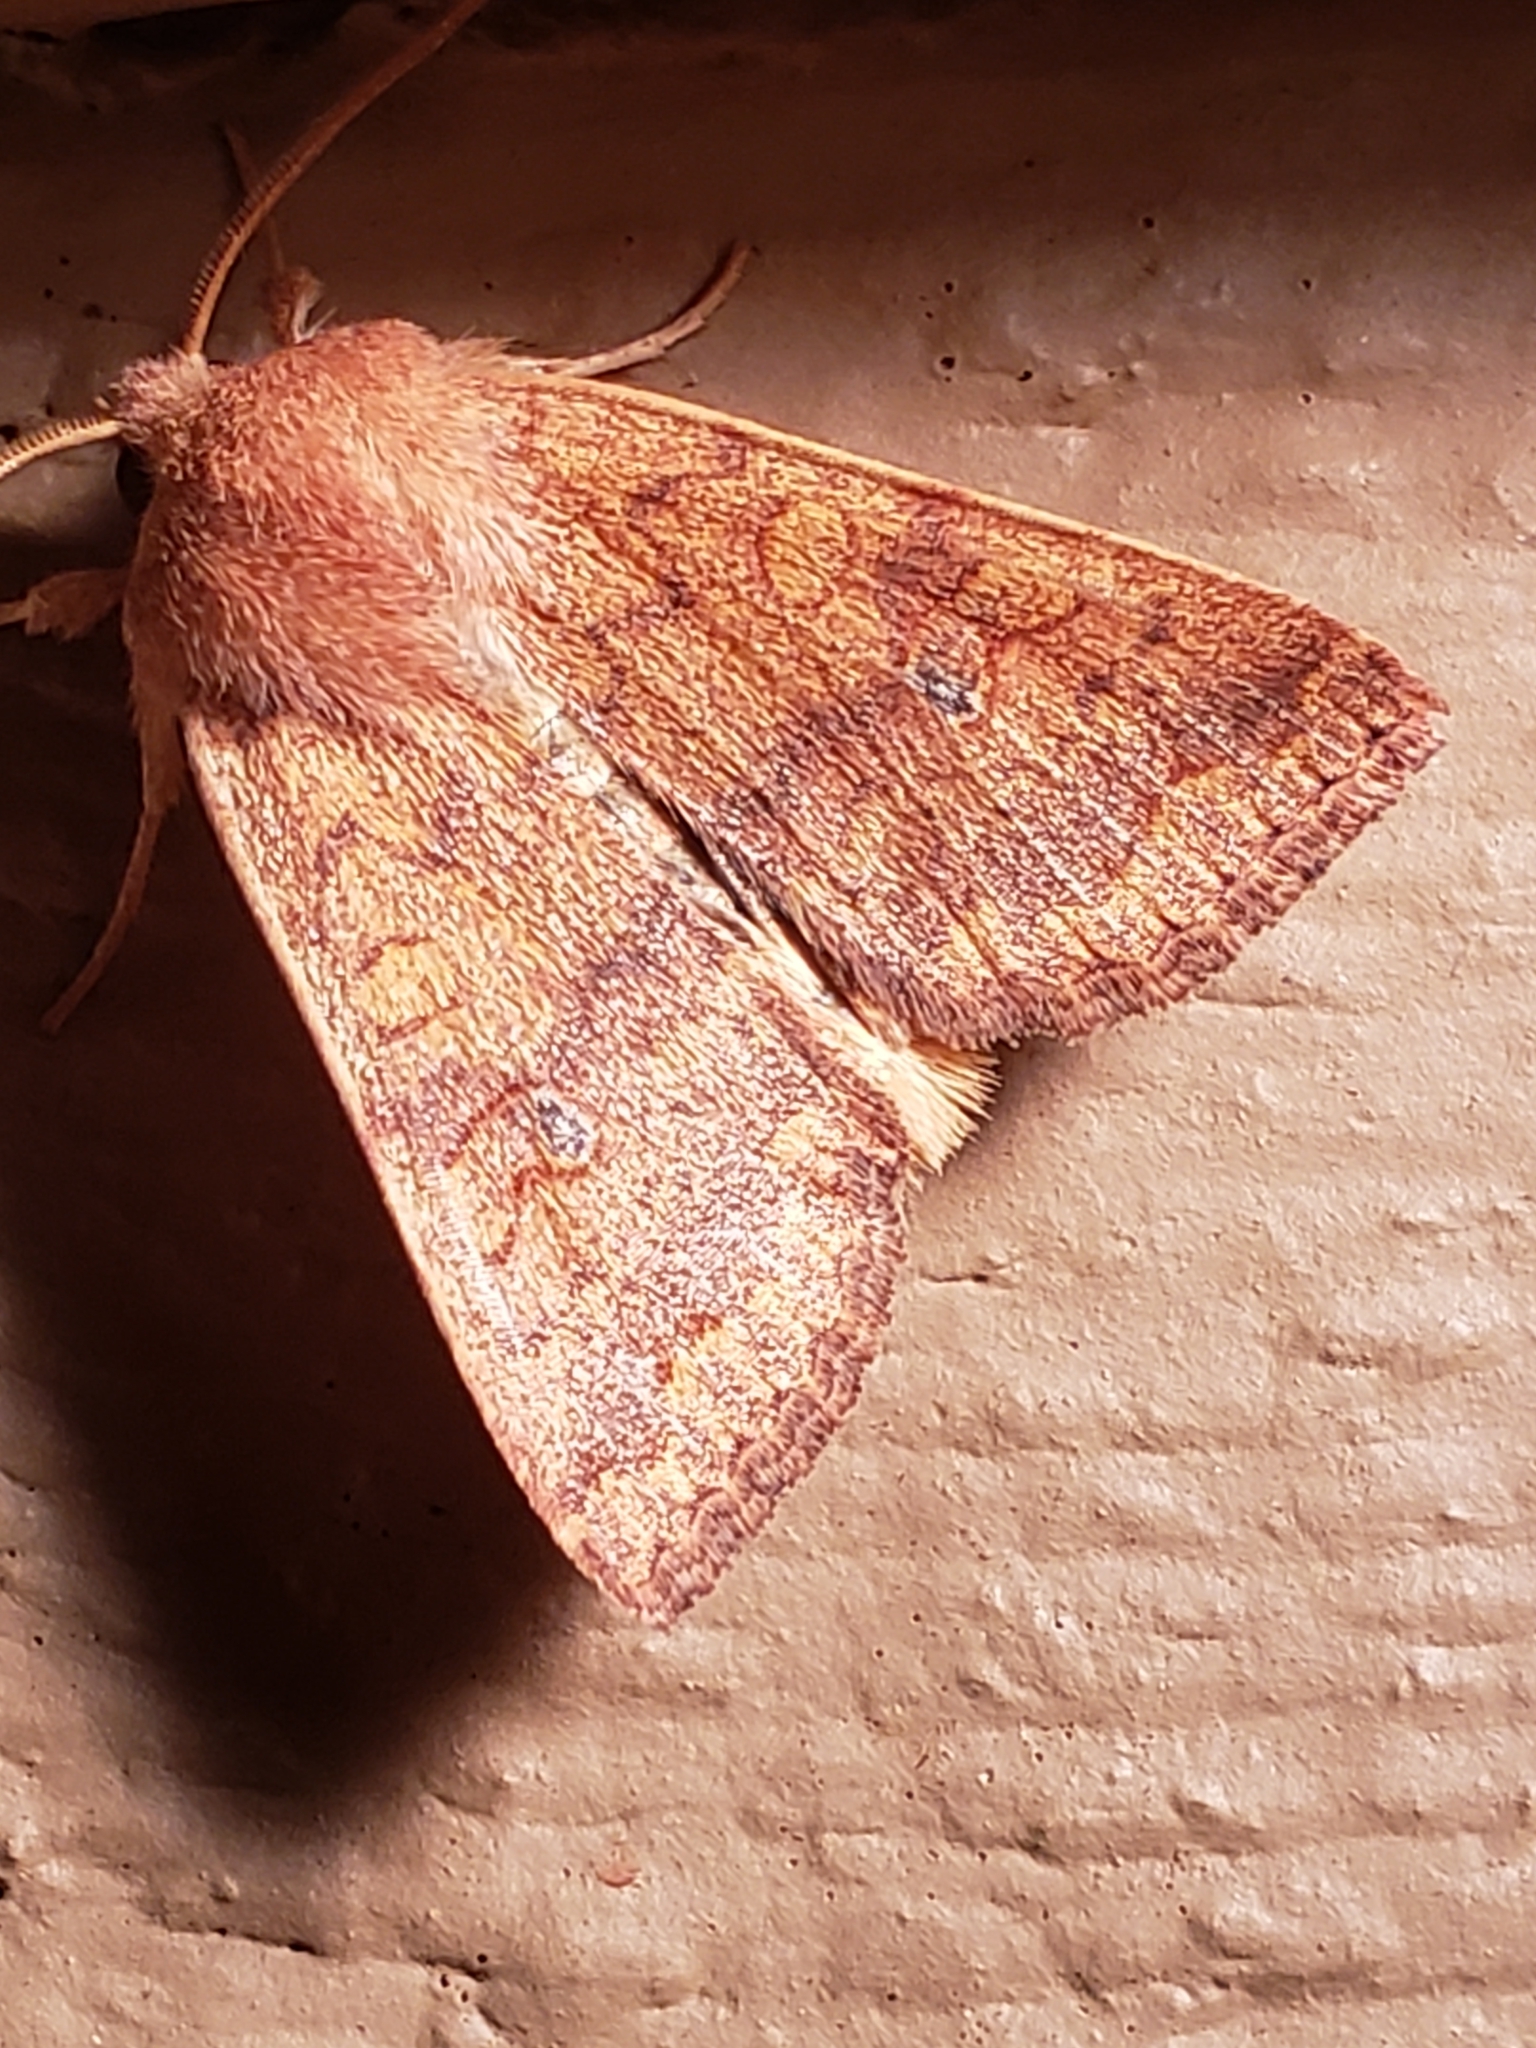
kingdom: Animalia
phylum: Arthropoda
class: Insecta
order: Lepidoptera
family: Noctuidae
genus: Agrochola
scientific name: Agrochola bicolorago
